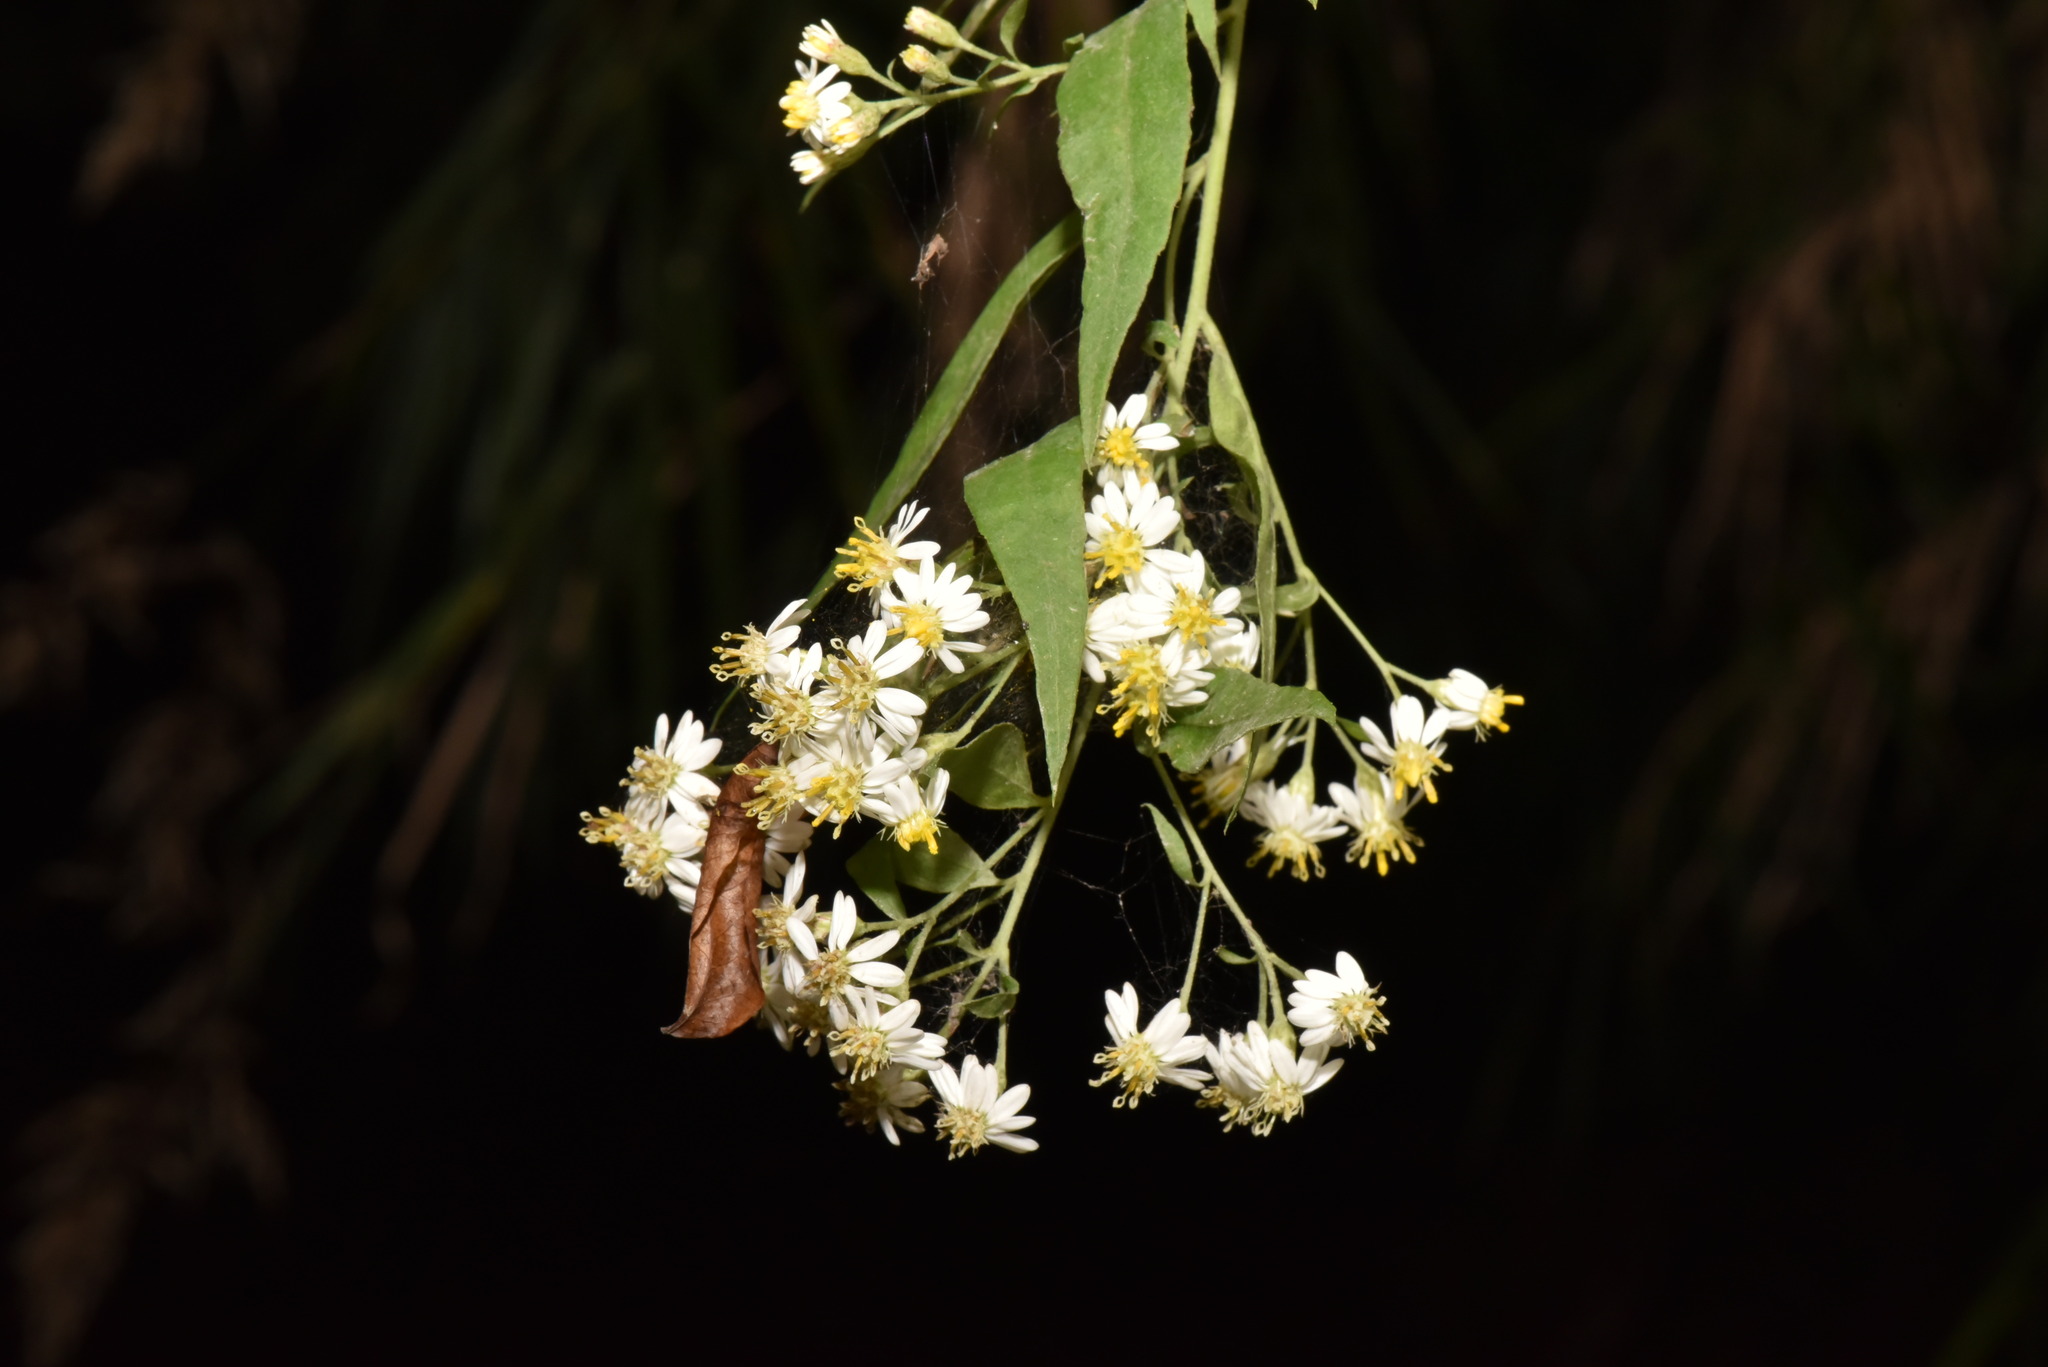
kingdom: Plantae
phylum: Tracheophyta
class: Magnoliopsida
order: Asterales
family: Asteraceae
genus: Aster
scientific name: Aster taiwanensis
